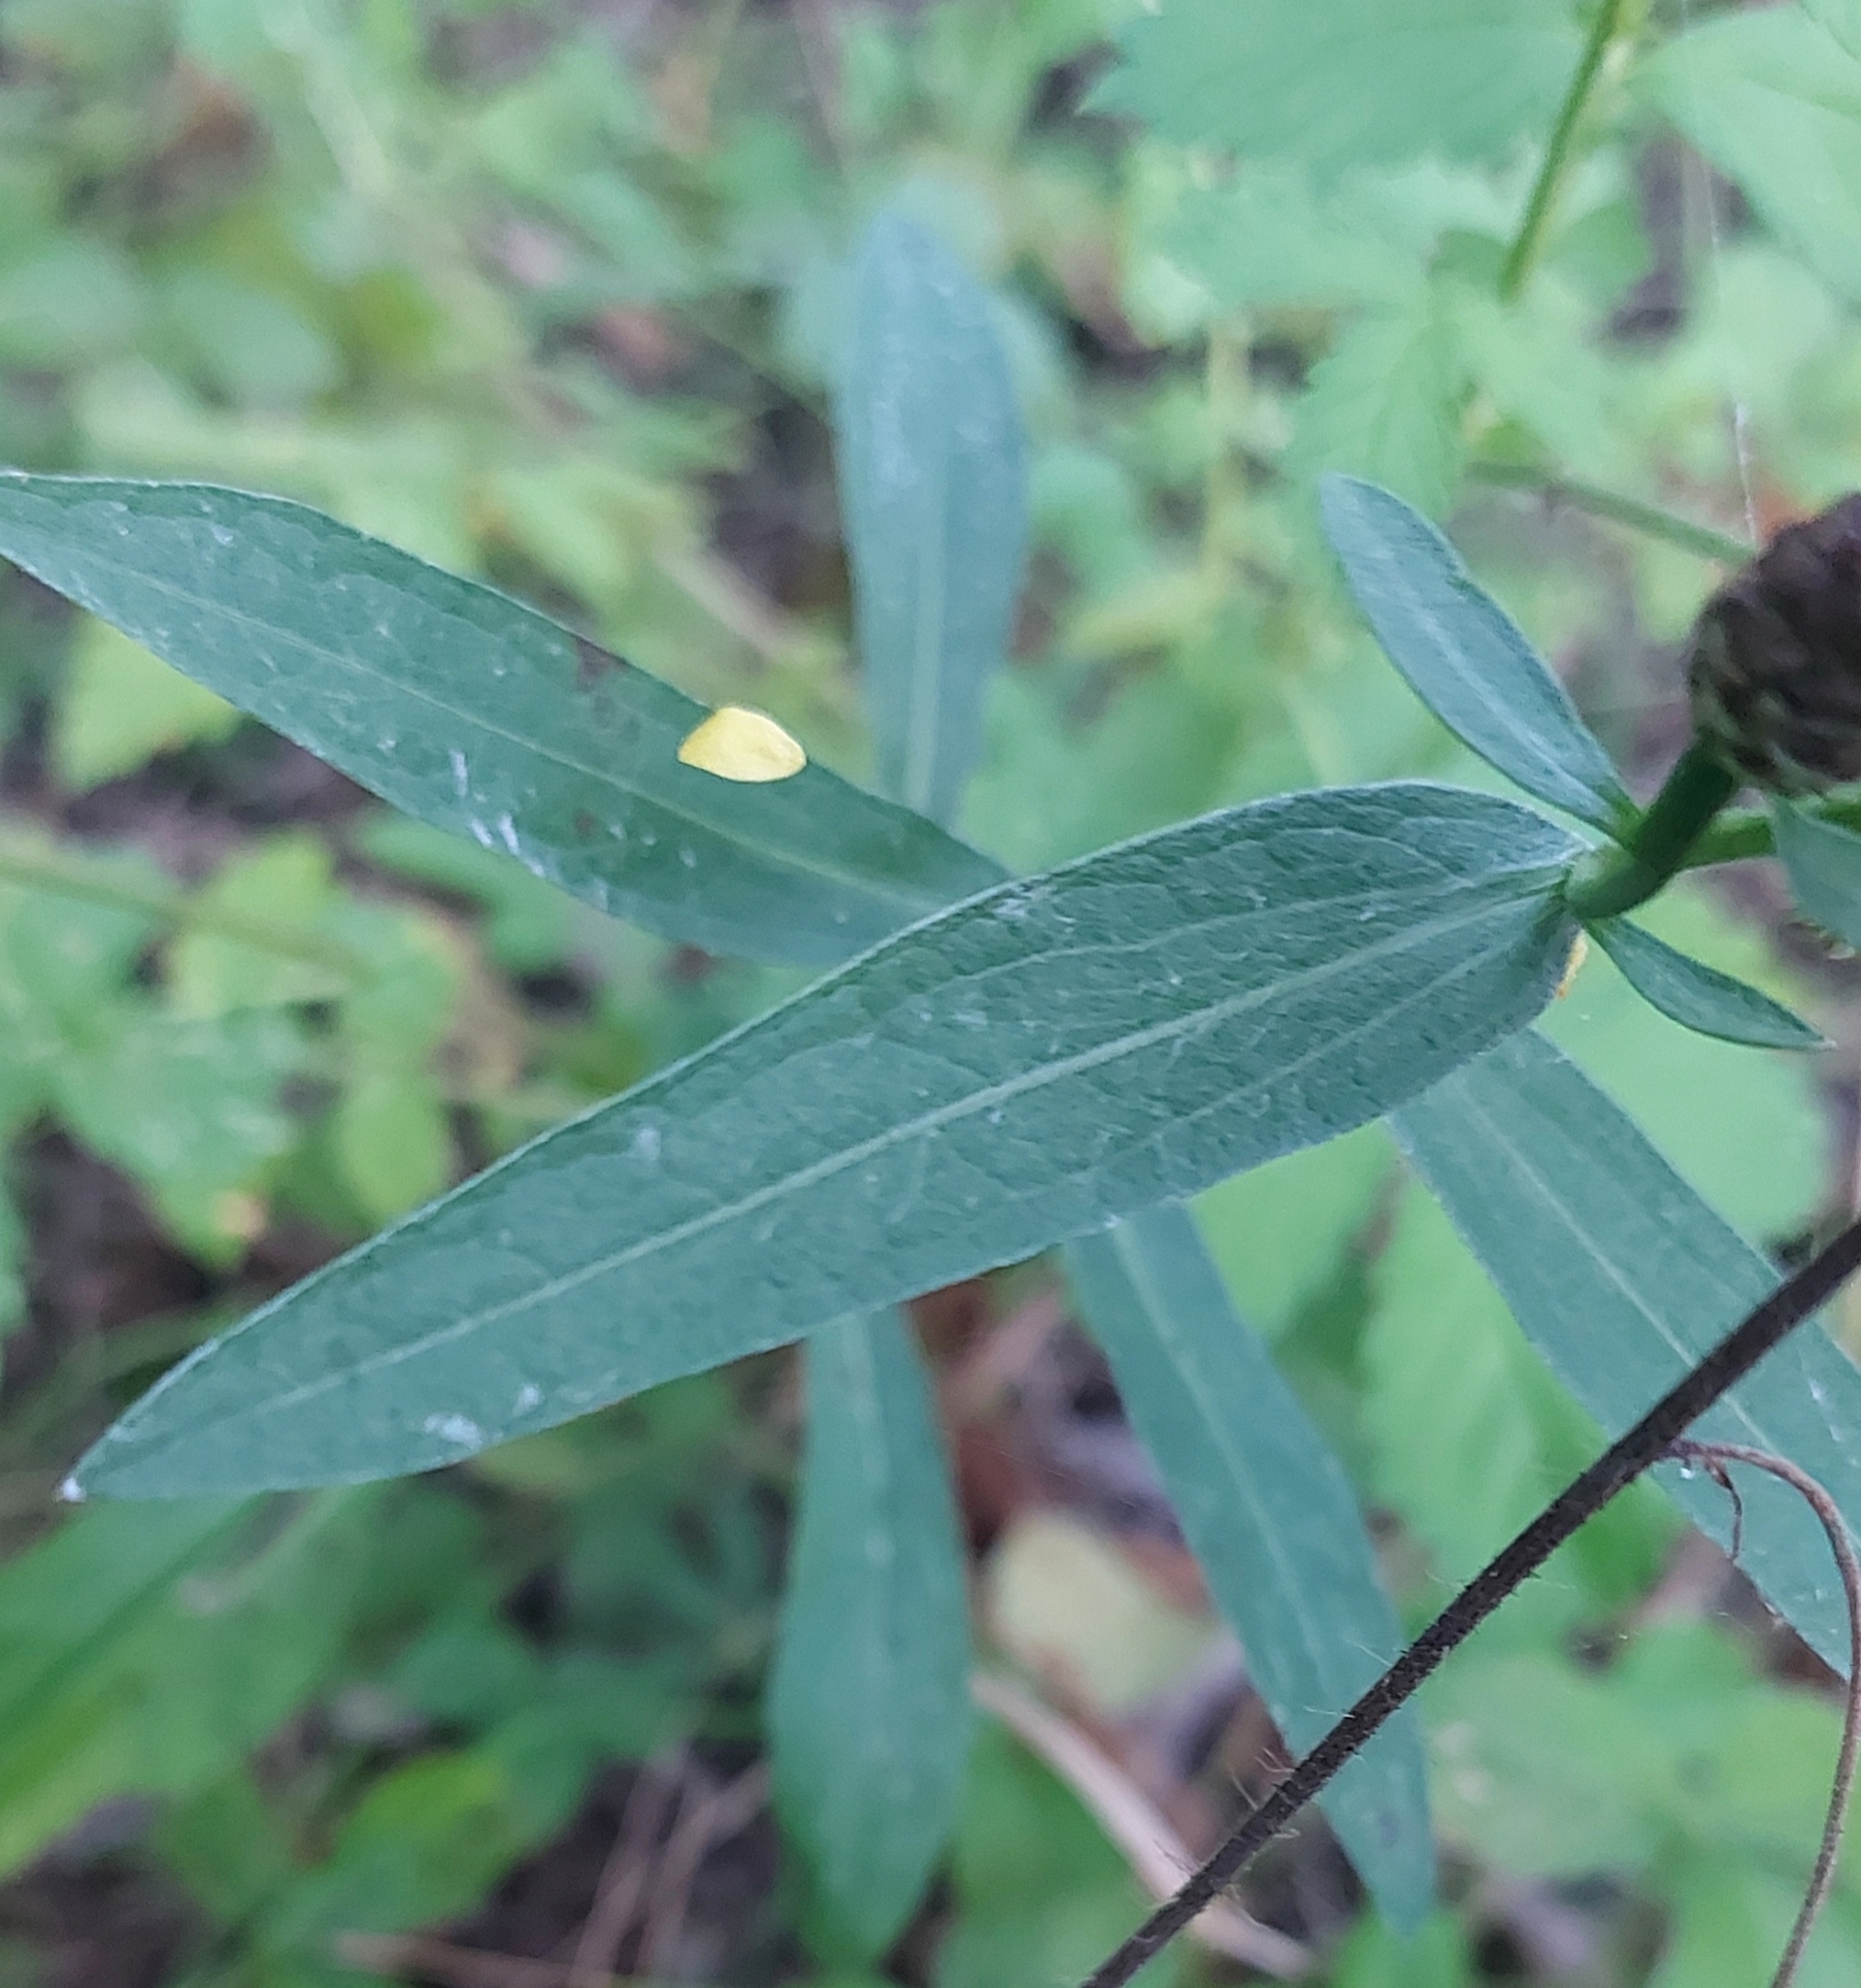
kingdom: Plantae
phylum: Tracheophyta
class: Magnoliopsida
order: Asterales
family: Asteraceae
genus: Centaurea
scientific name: Centaurea jacea
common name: Brown knapweed
